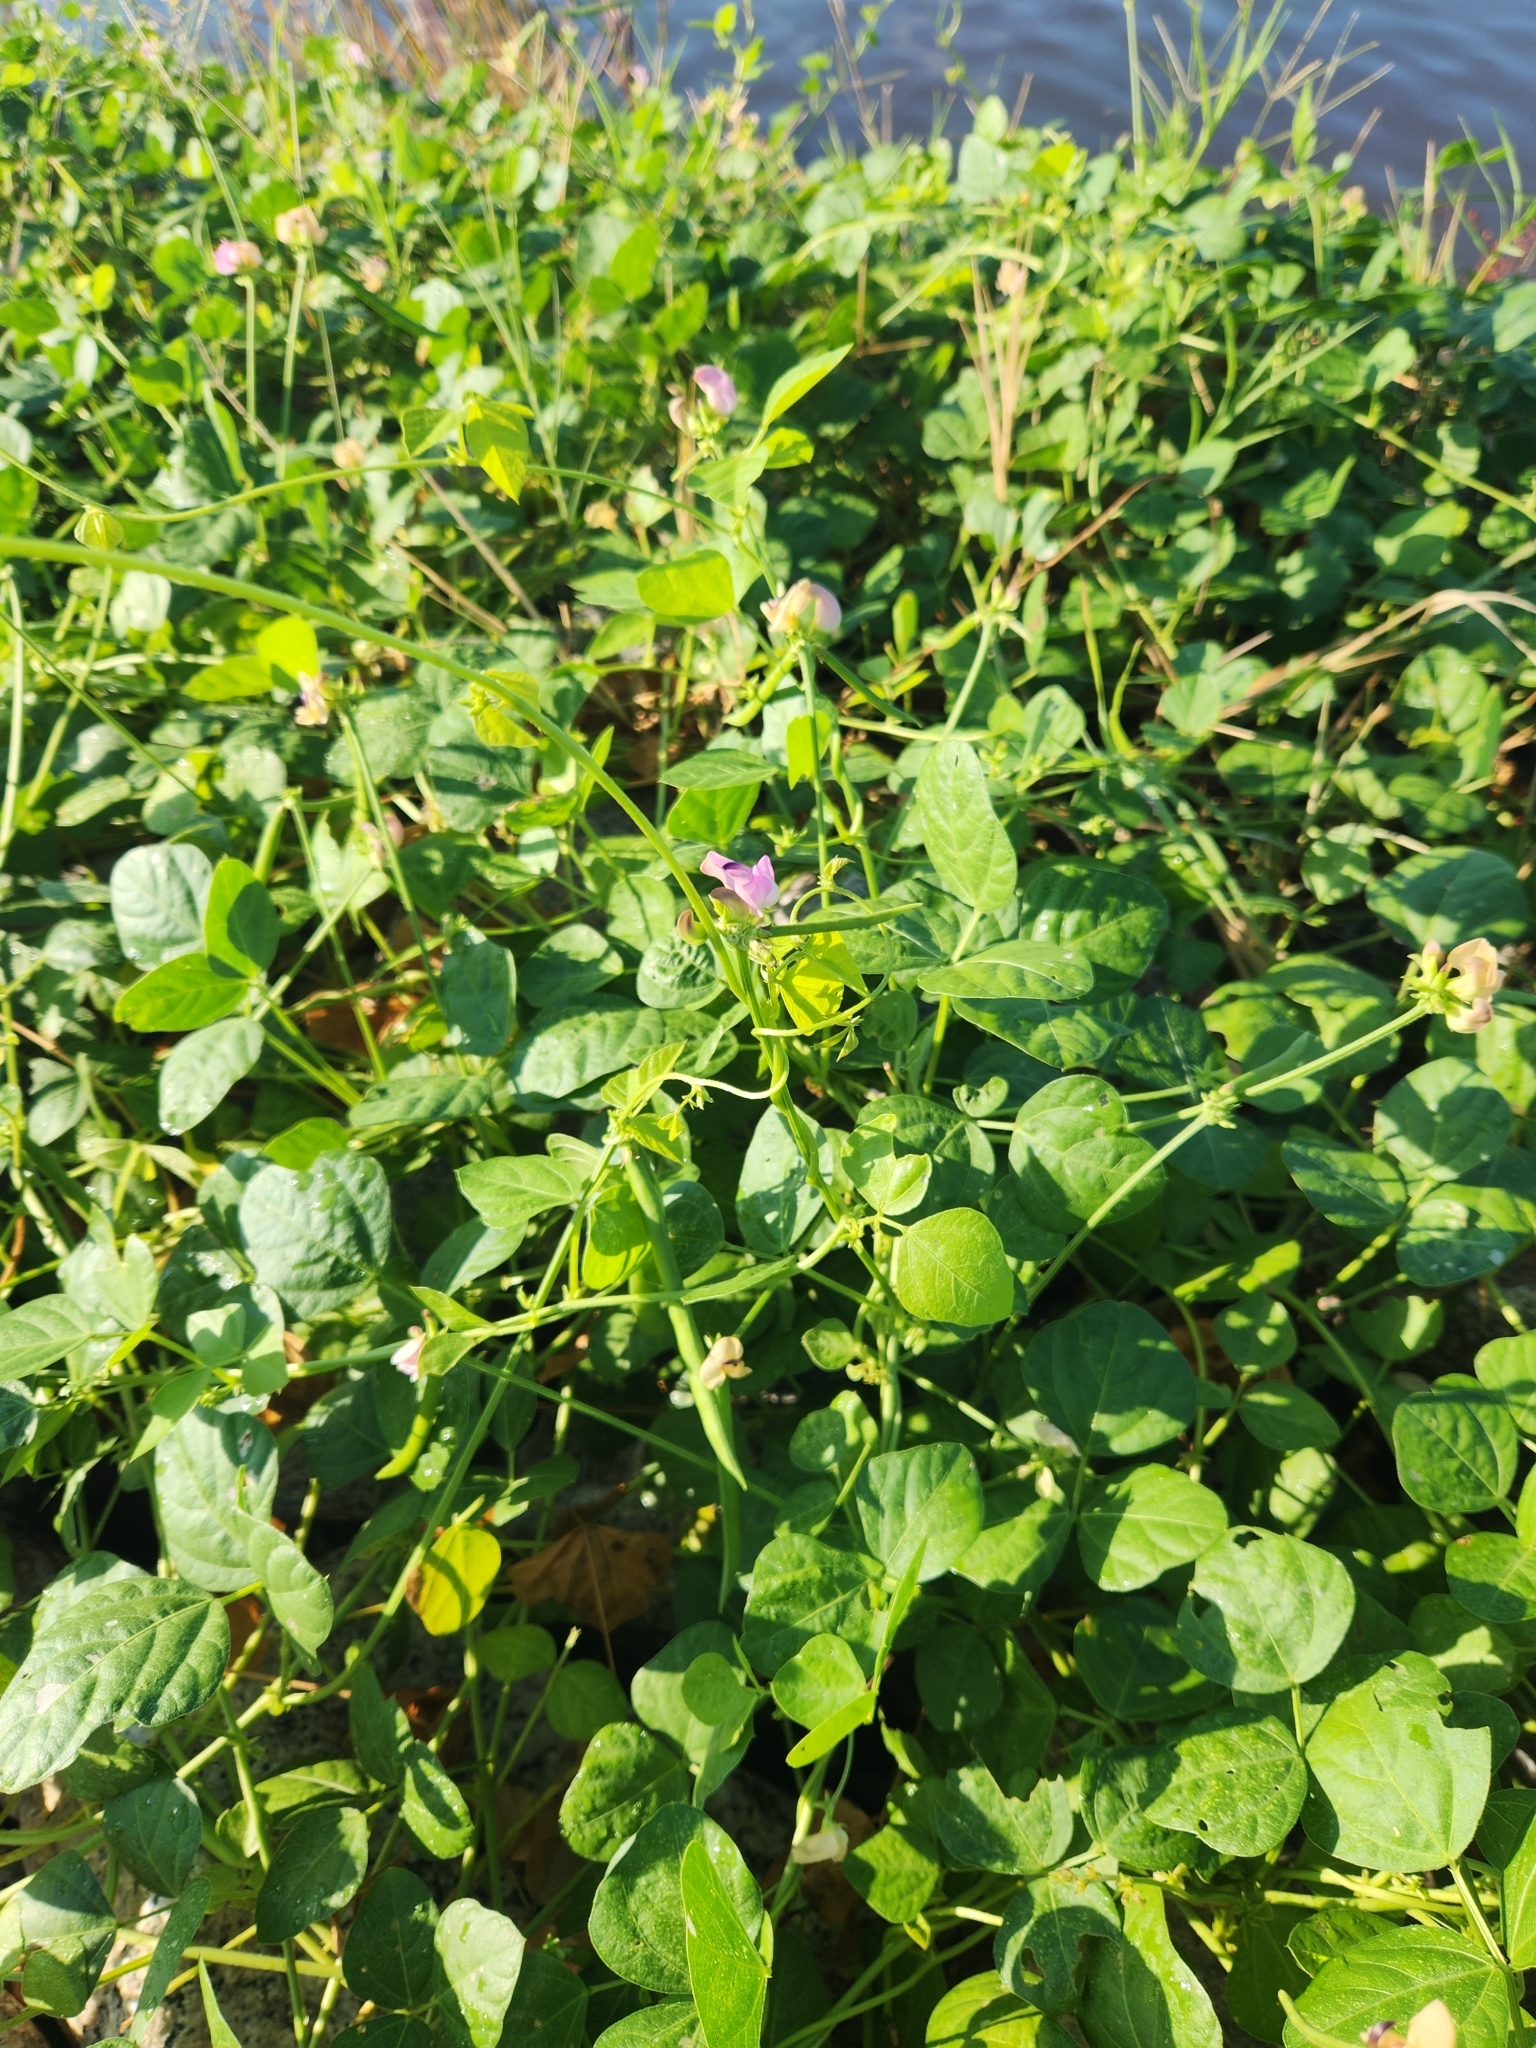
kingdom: Plantae
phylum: Tracheophyta
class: Magnoliopsida
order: Fabales
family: Fabaceae
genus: Strophostyles
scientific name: Strophostyles helvola
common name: Trailing wild bean
